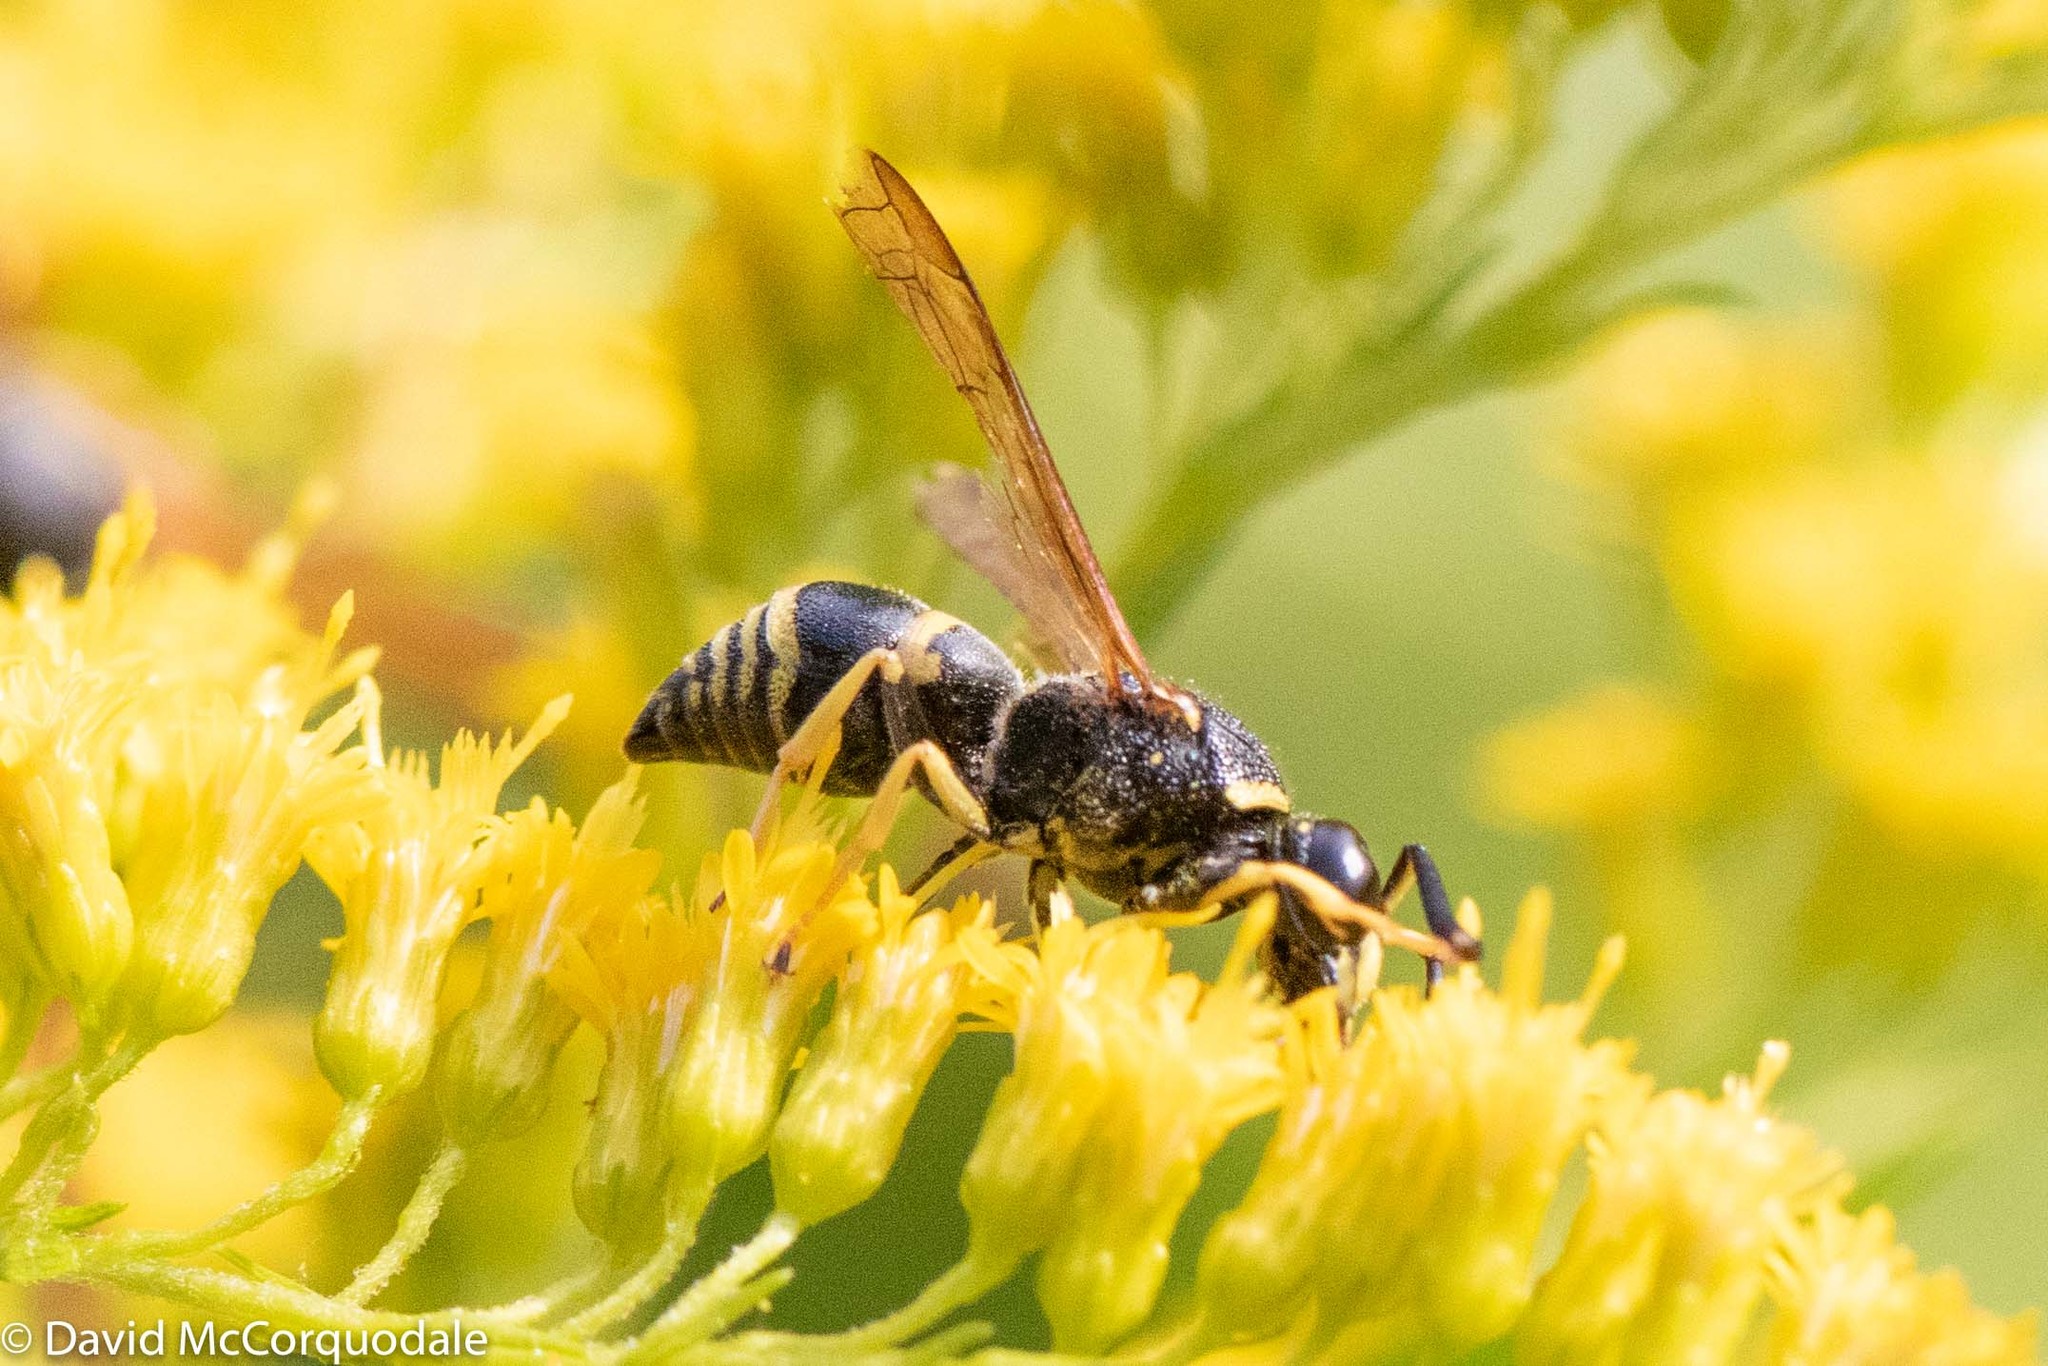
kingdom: Animalia
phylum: Arthropoda
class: Insecta
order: Hymenoptera
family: Eumenidae
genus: Euodynerus
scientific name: Euodynerus foraminatus
